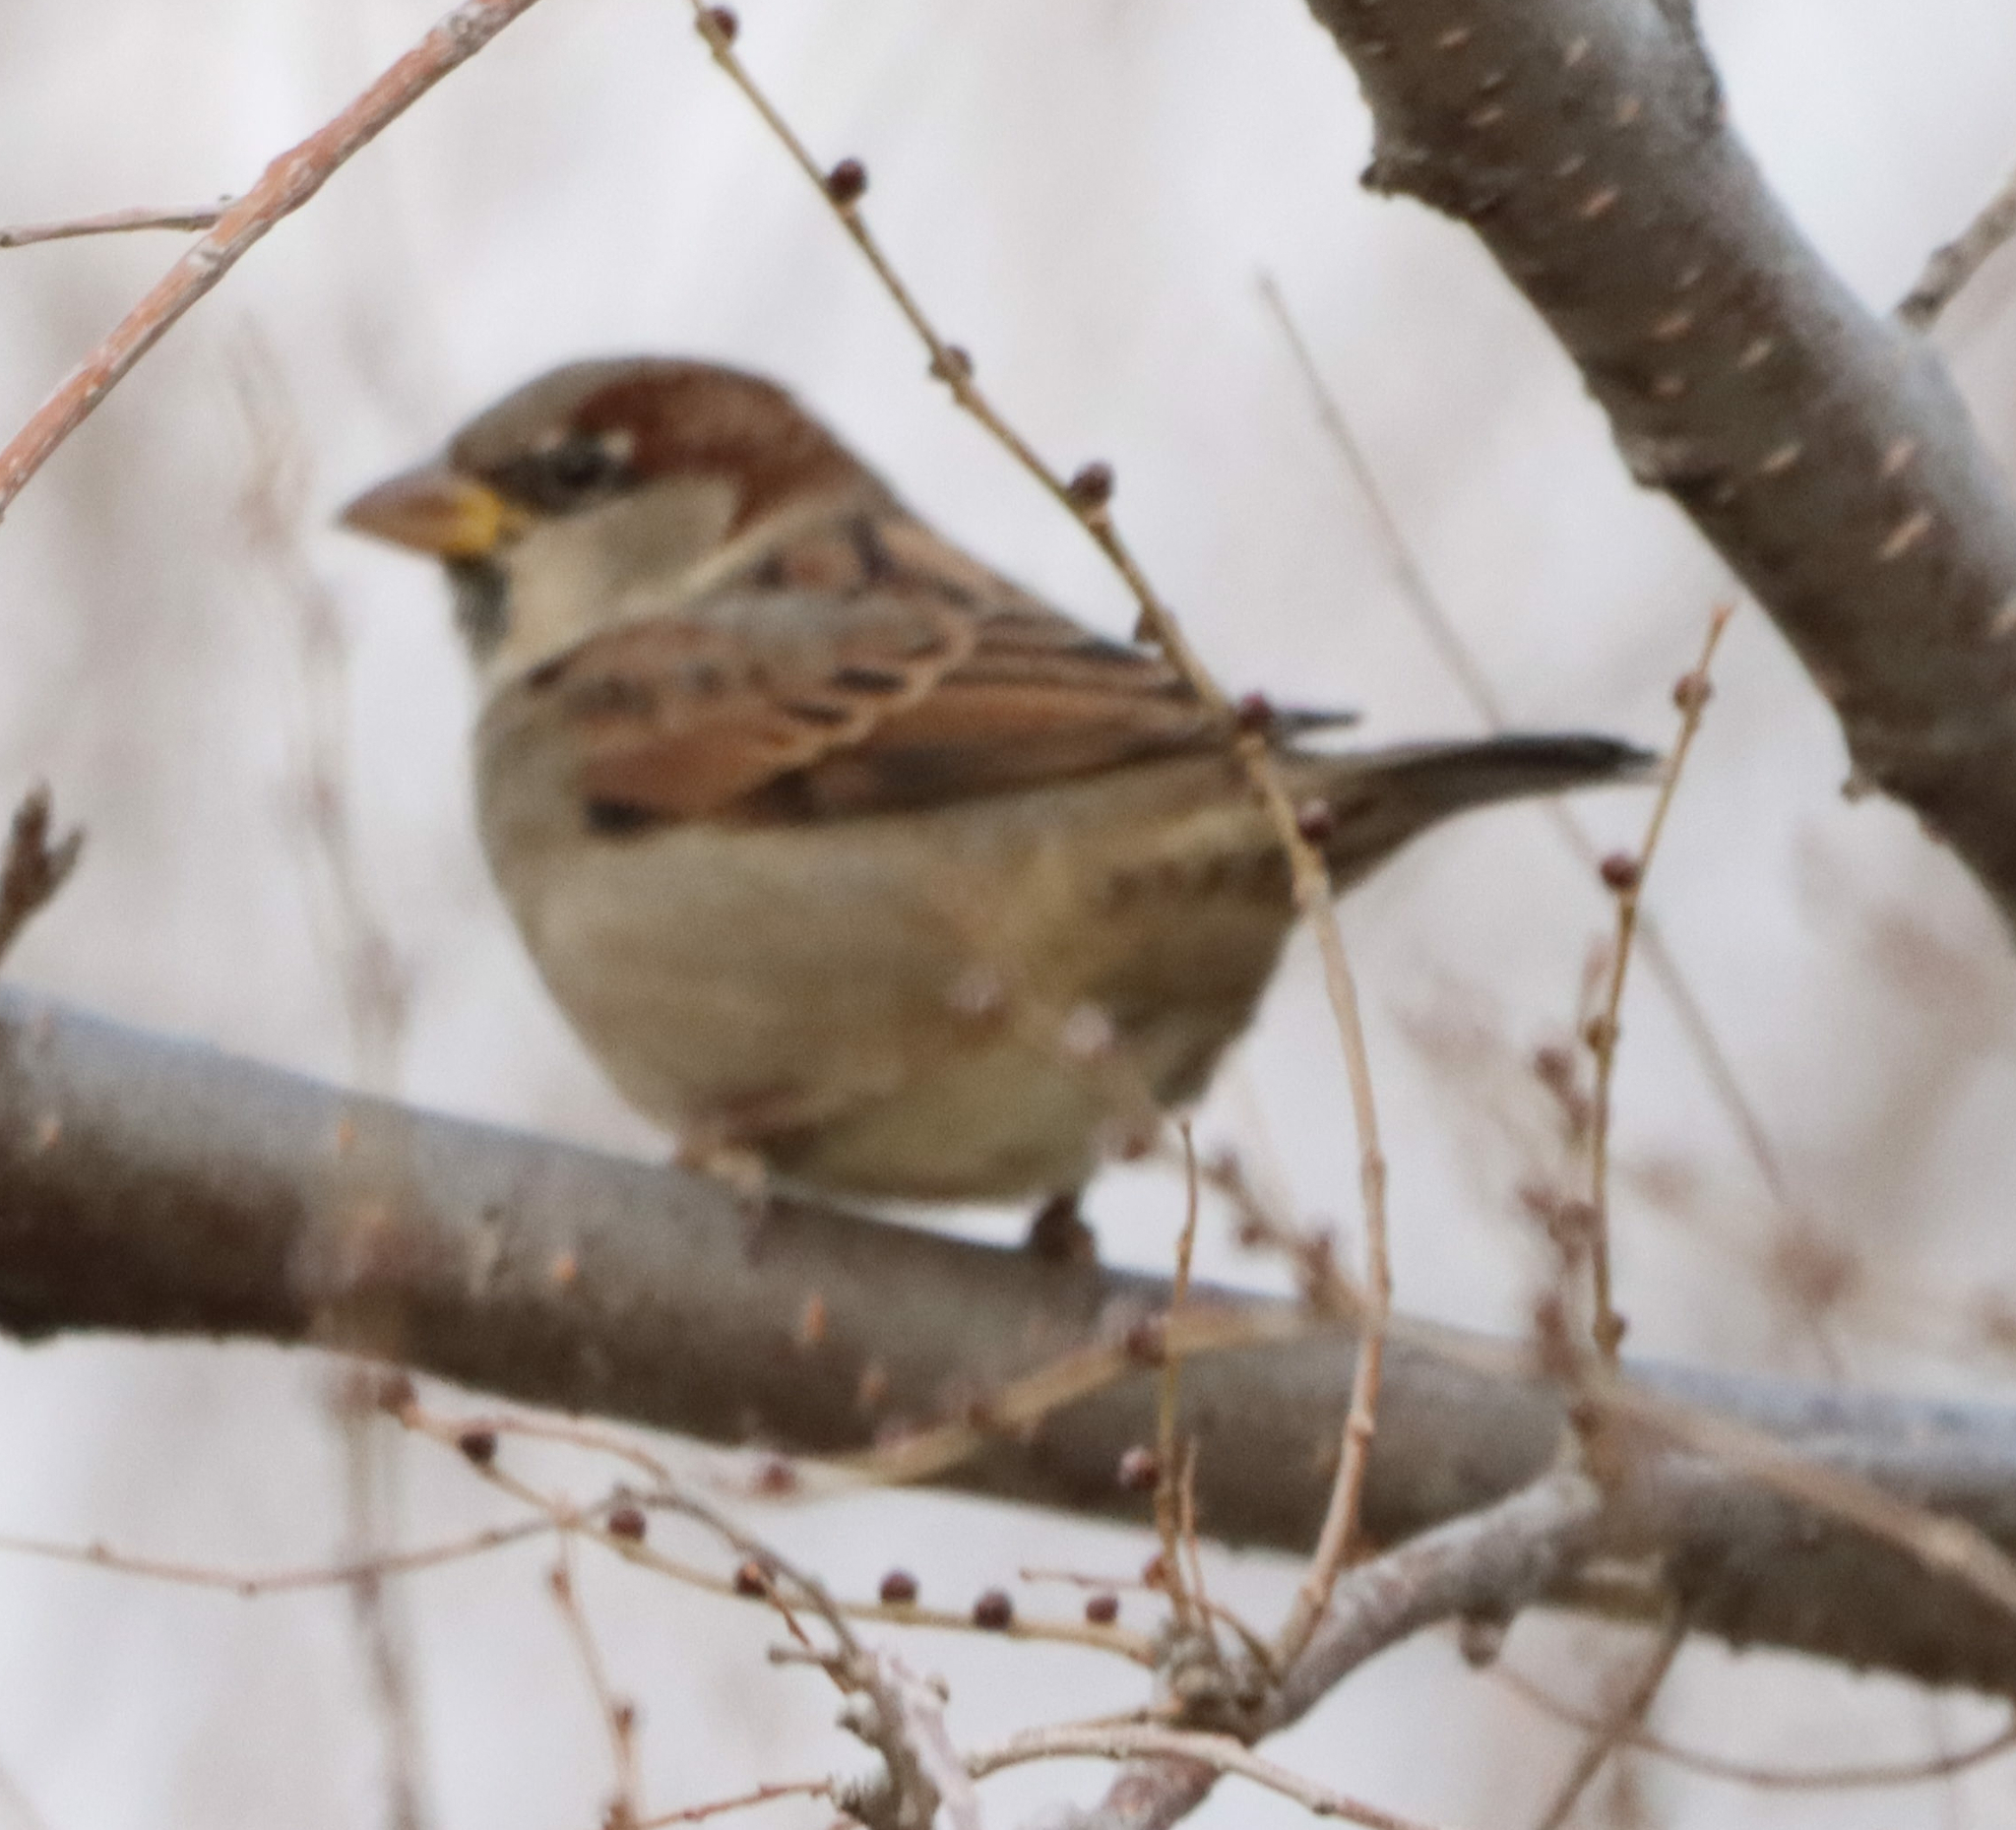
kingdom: Animalia
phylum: Chordata
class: Aves
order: Passeriformes
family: Passeridae
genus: Passer
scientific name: Passer domesticus
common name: House sparrow
